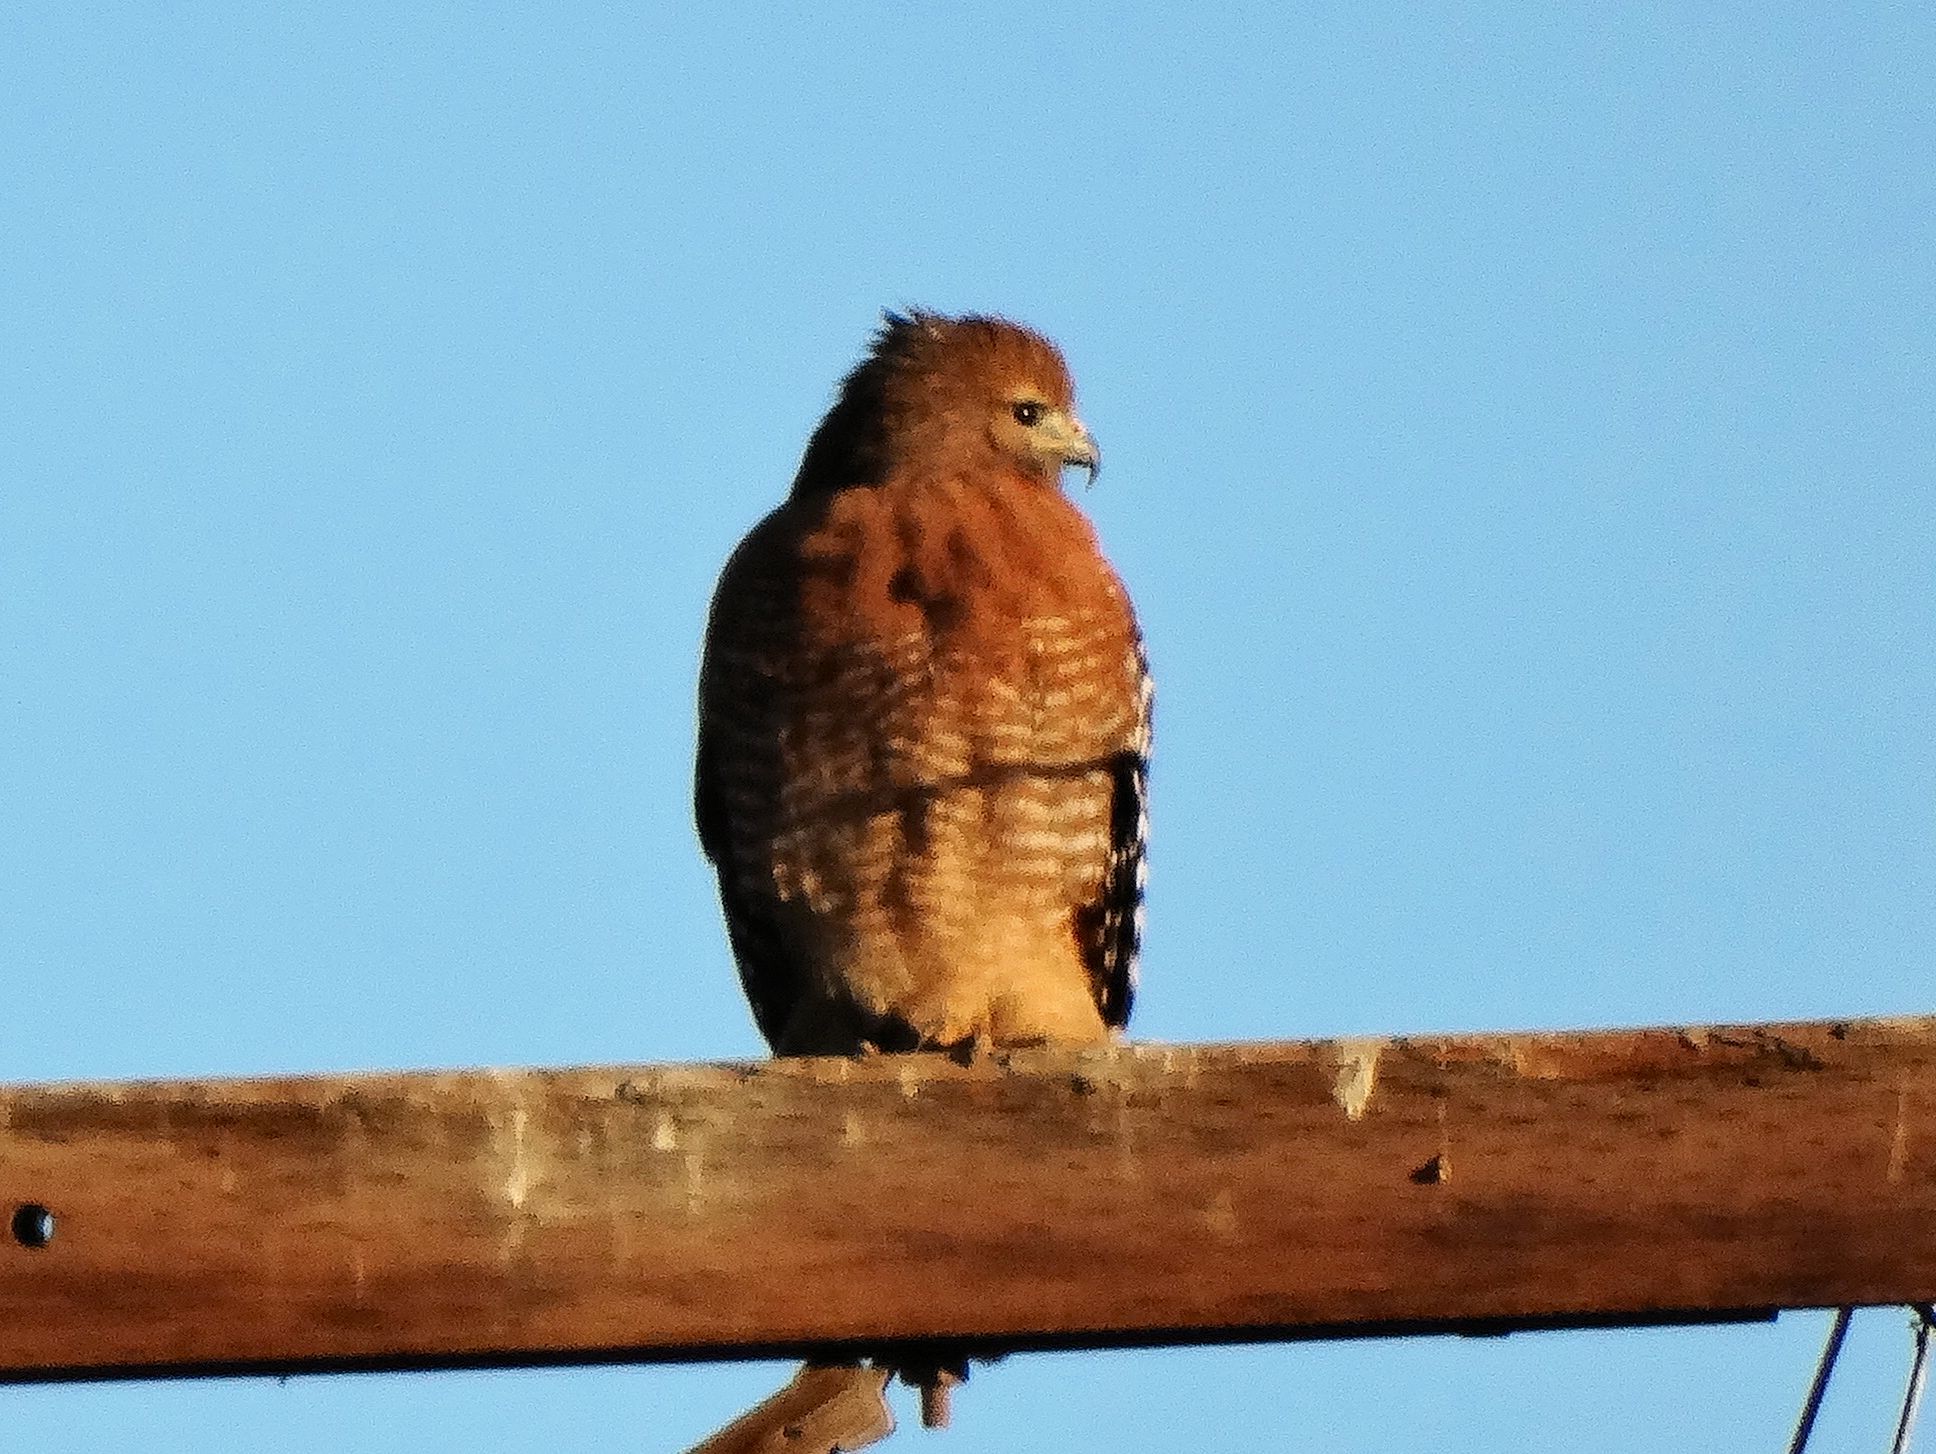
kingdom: Animalia
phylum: Chordata
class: Aves
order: Accipitriformes
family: Accipitridae
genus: Buteo
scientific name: Buteo lineatus
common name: Red-shouldered hawk
